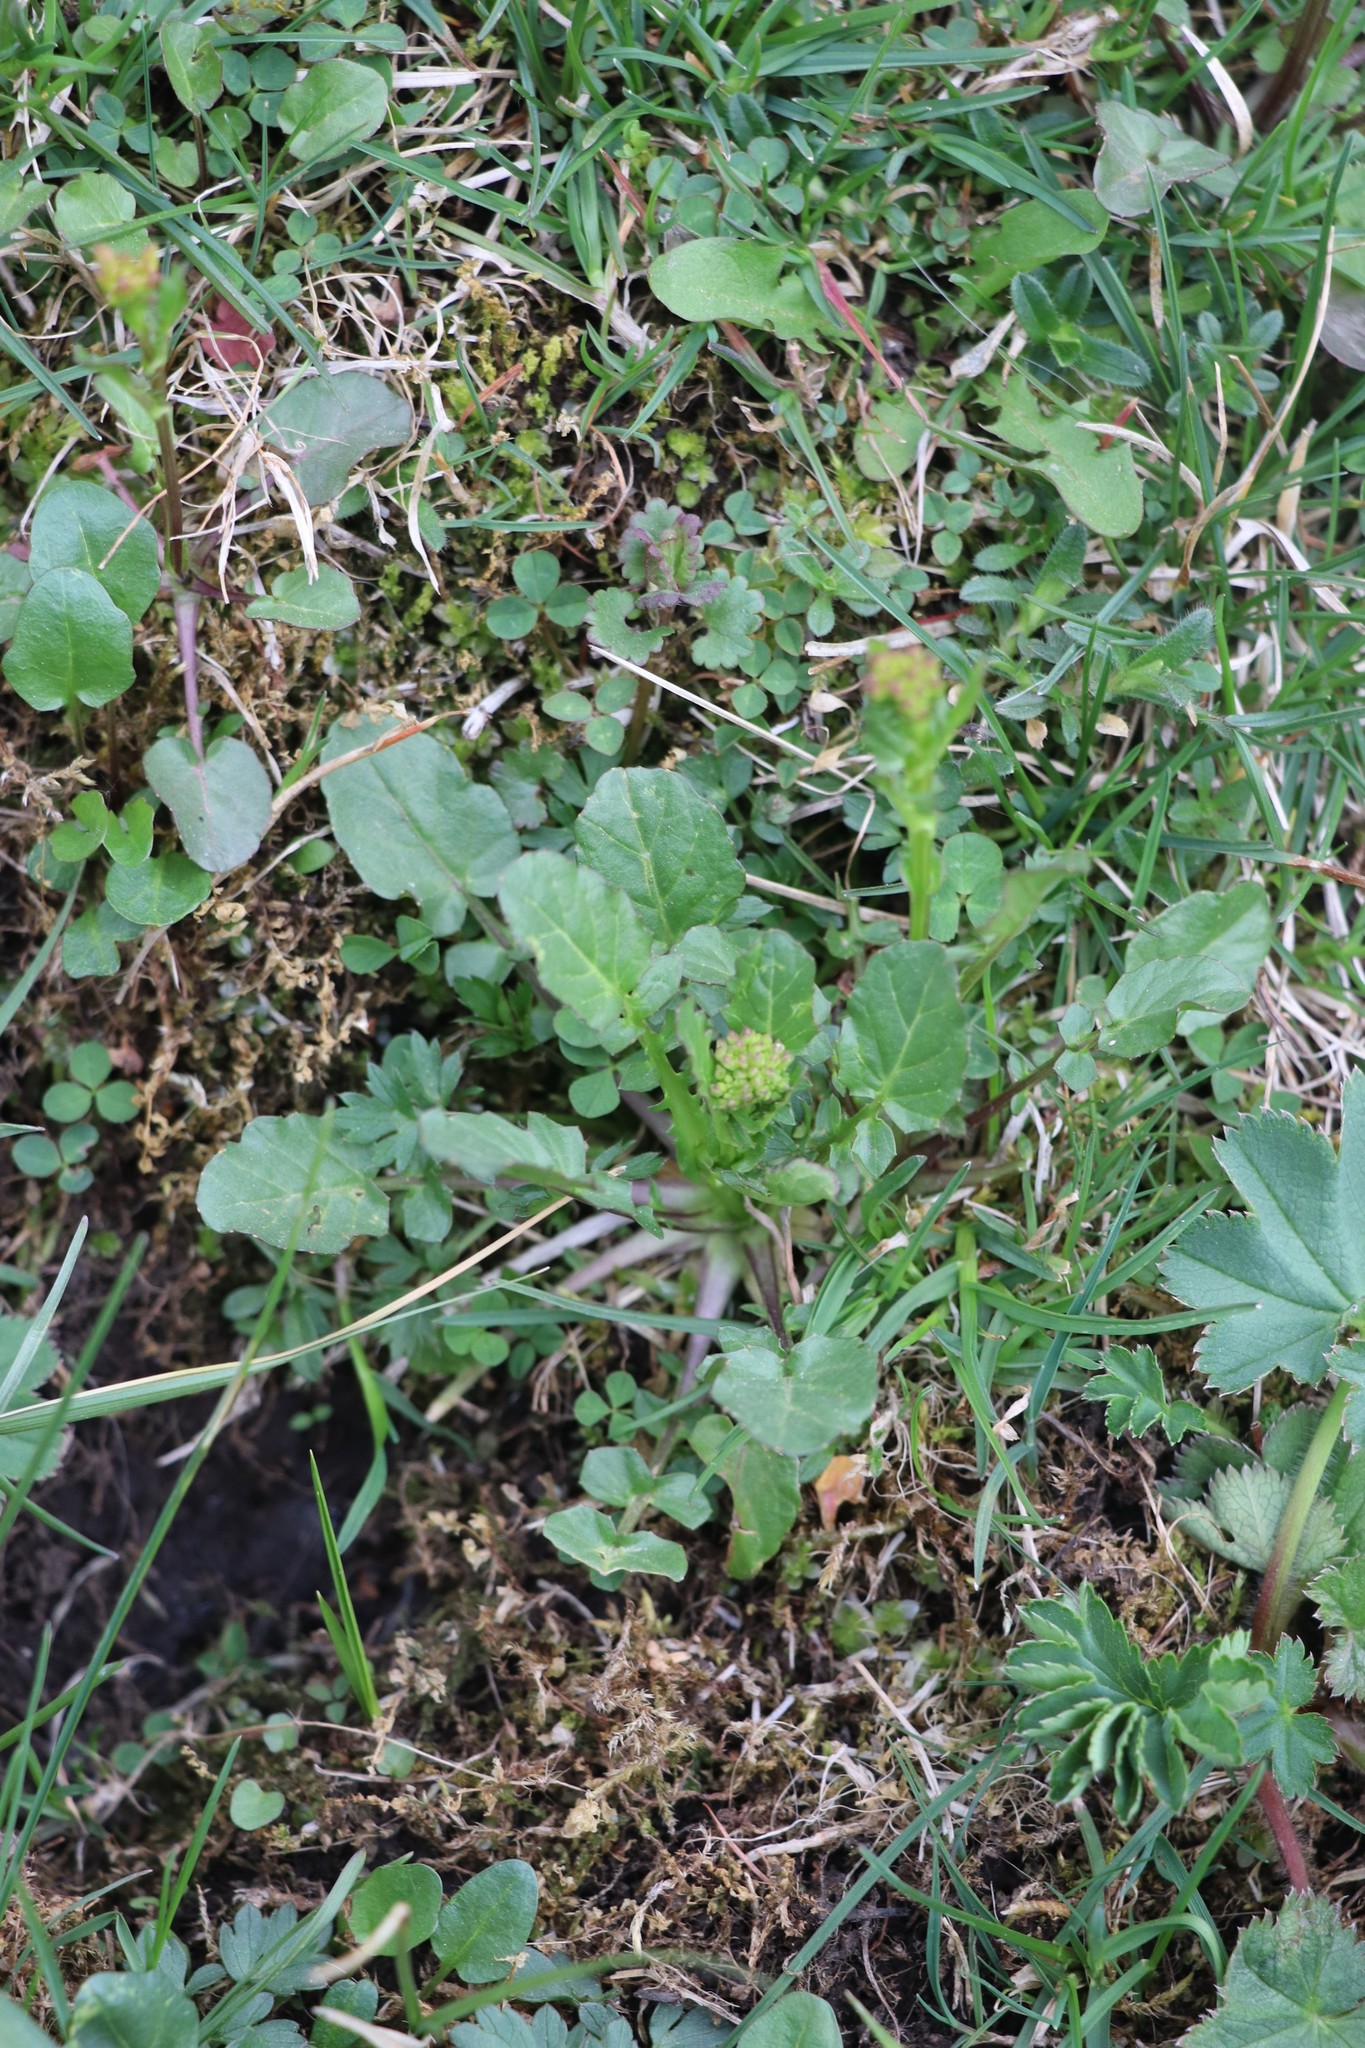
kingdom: Plantae
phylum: Tracheophyta
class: Magnoliopsida
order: Brassicales
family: Brassicaceae
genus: Barbarea
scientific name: Barbarea vulgaris
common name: Cressy-greens
